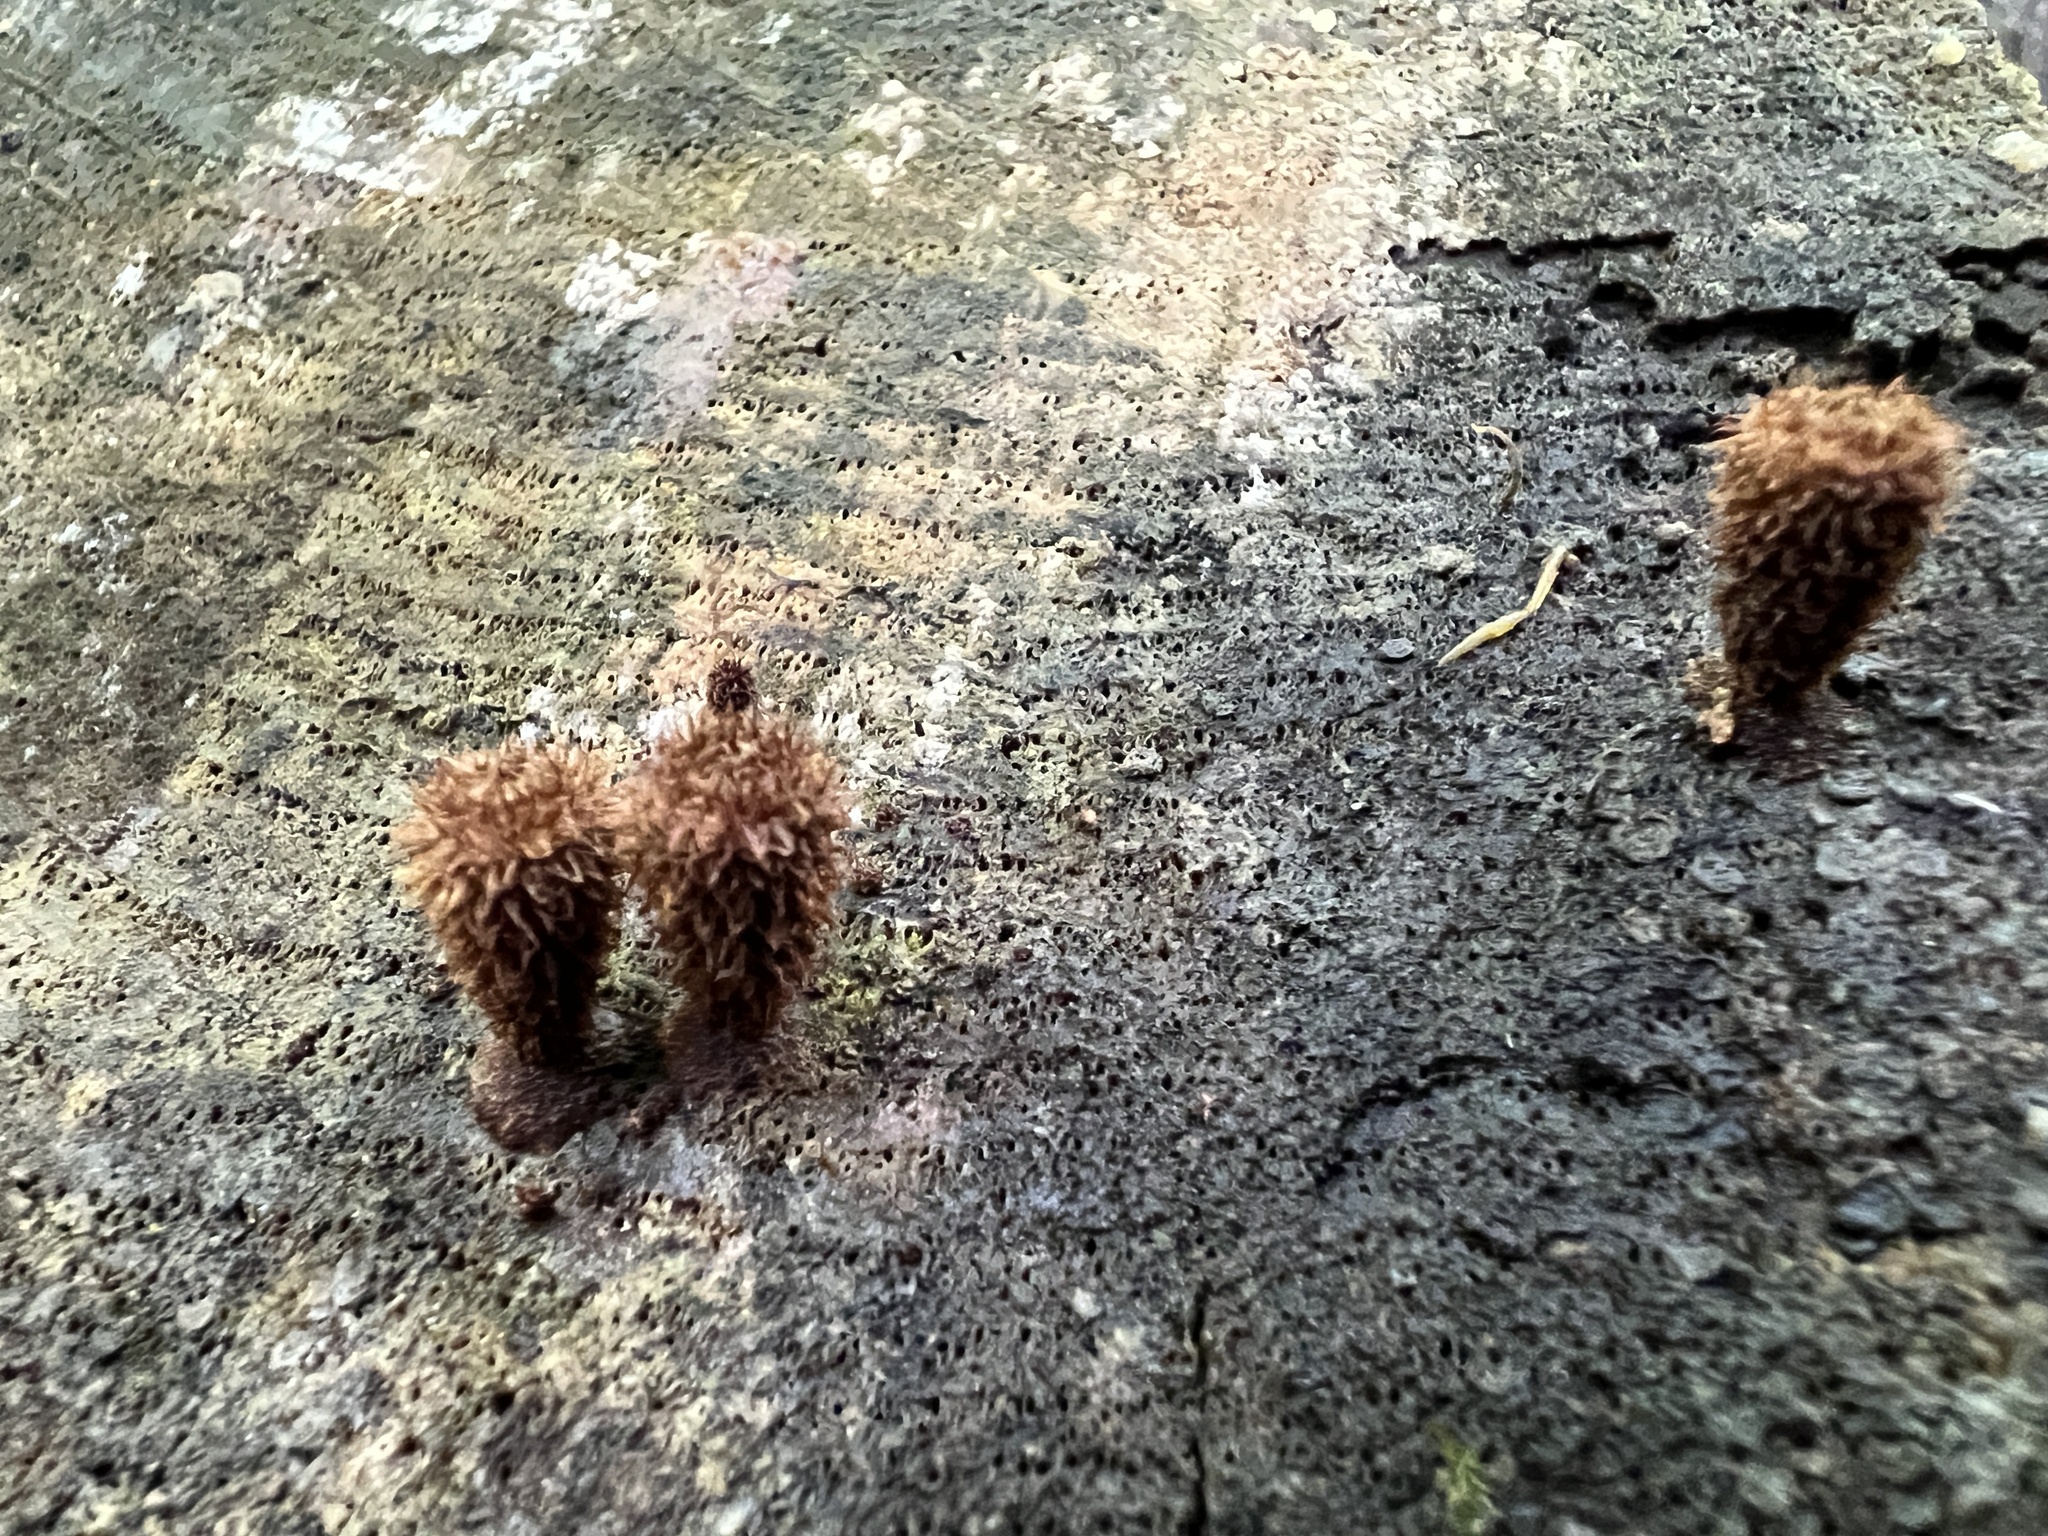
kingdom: Fungi
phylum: Basidiomycota
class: Agaricomycetes
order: Agaricales
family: Agaricaceae
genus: Cyathus
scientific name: Cyathus striatus
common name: Fluted bird's nest
